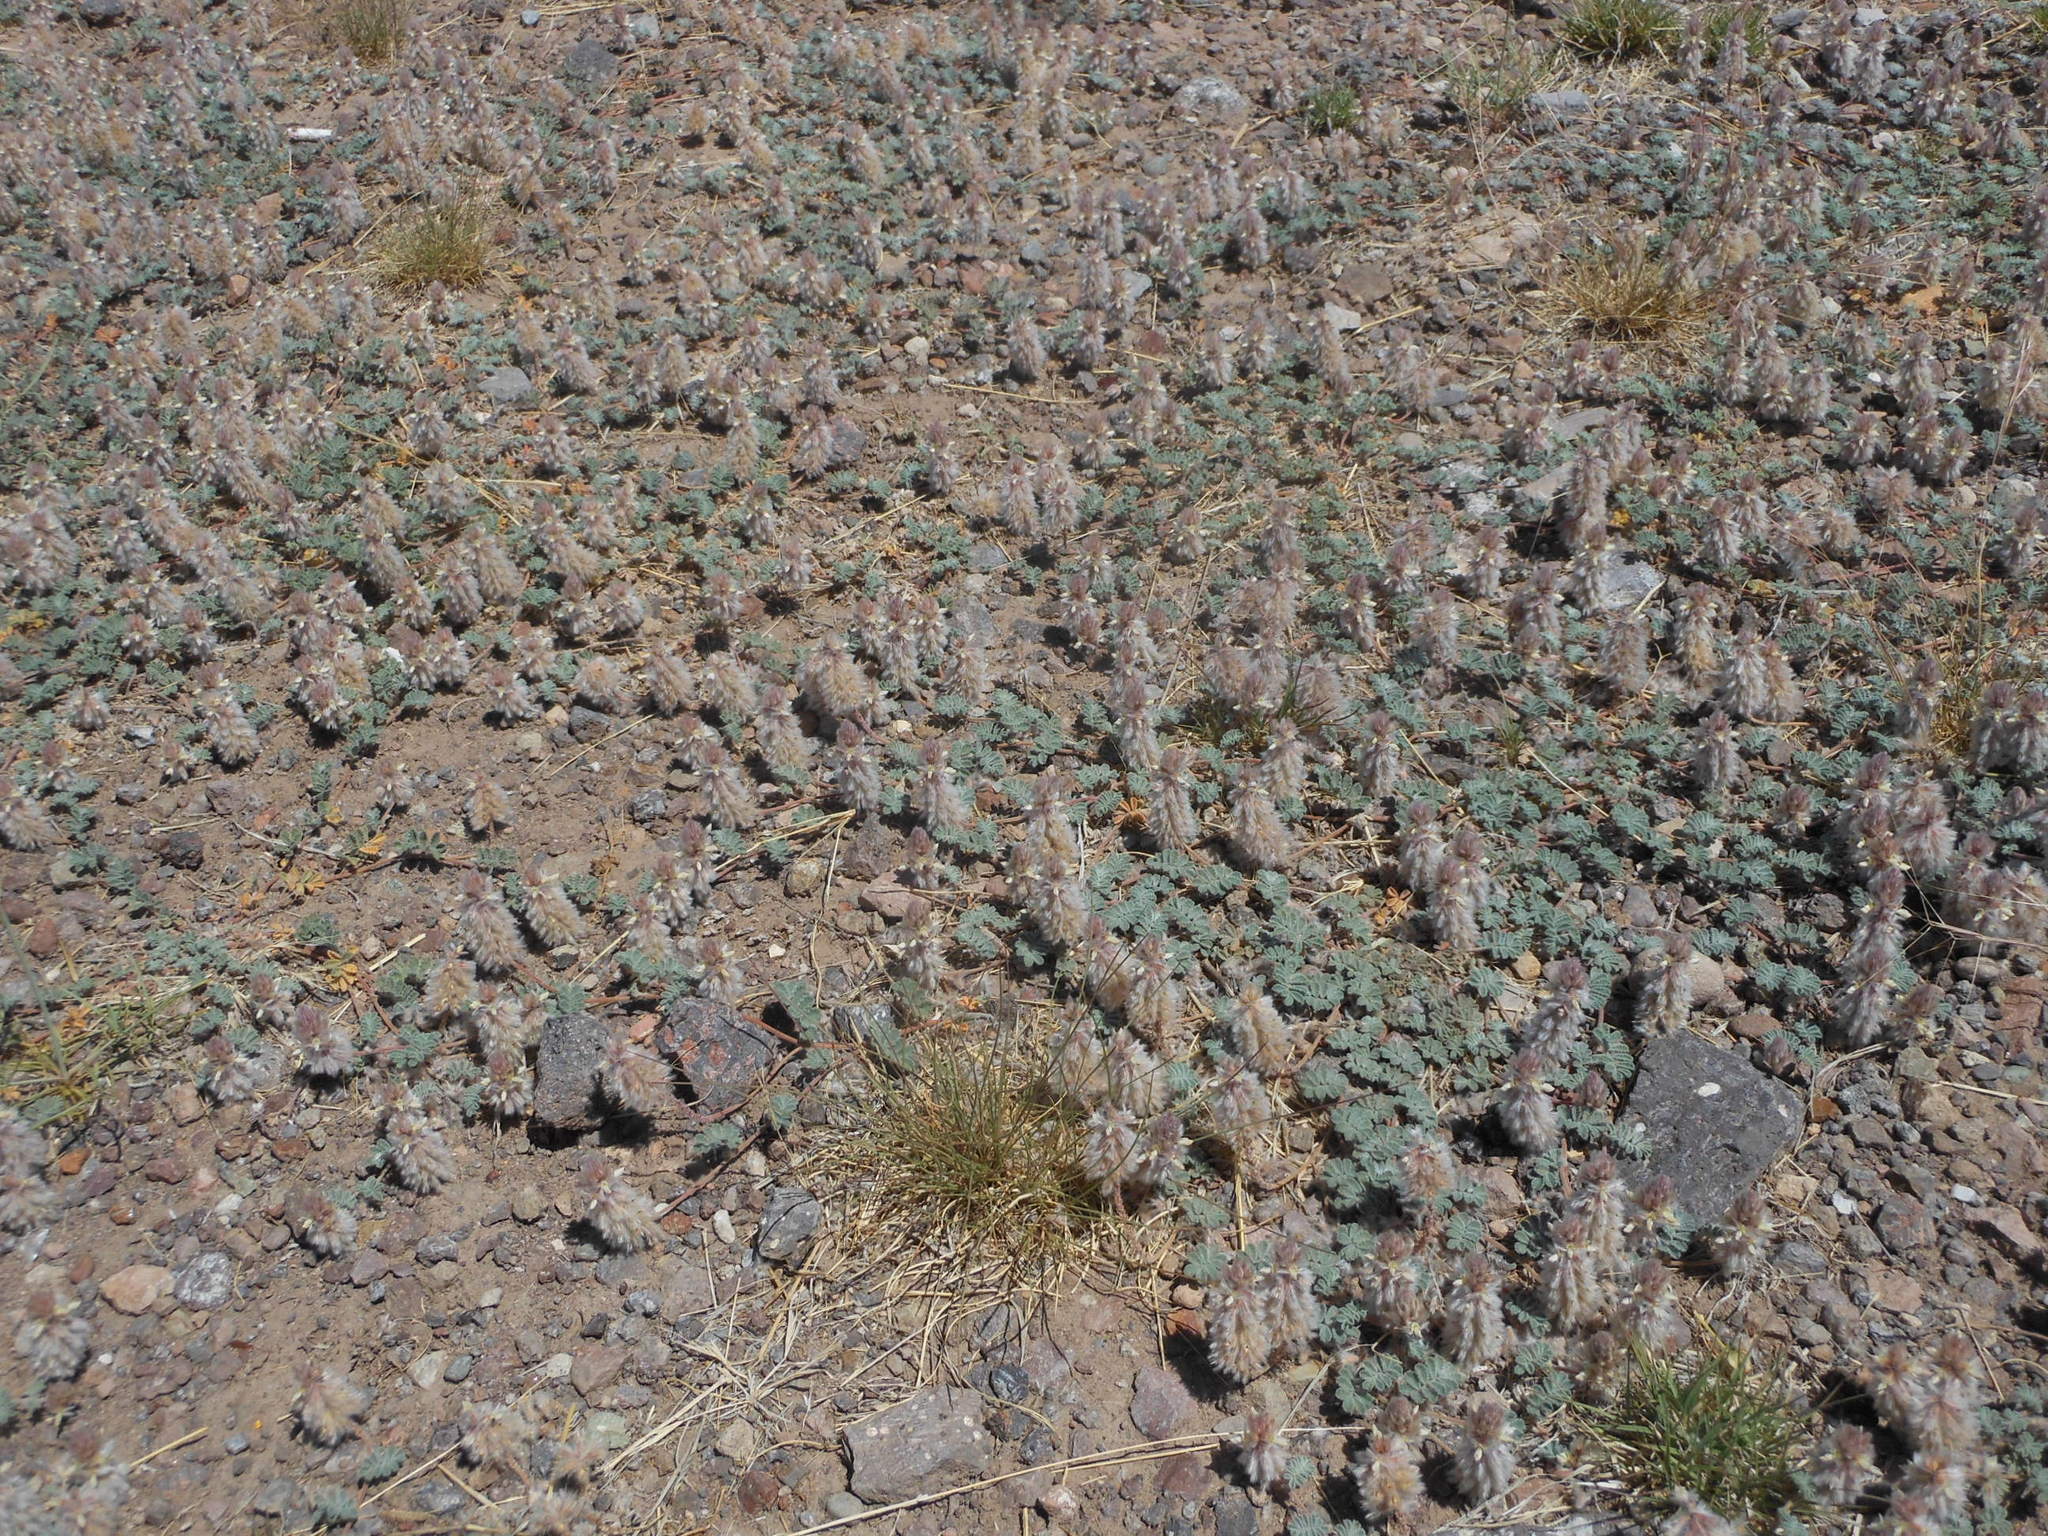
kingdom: Plantae
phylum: Tracheophyta
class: Magnoliopsida
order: Fabales
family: Fabaceae
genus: Dalea
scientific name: Dalea neomexicana
